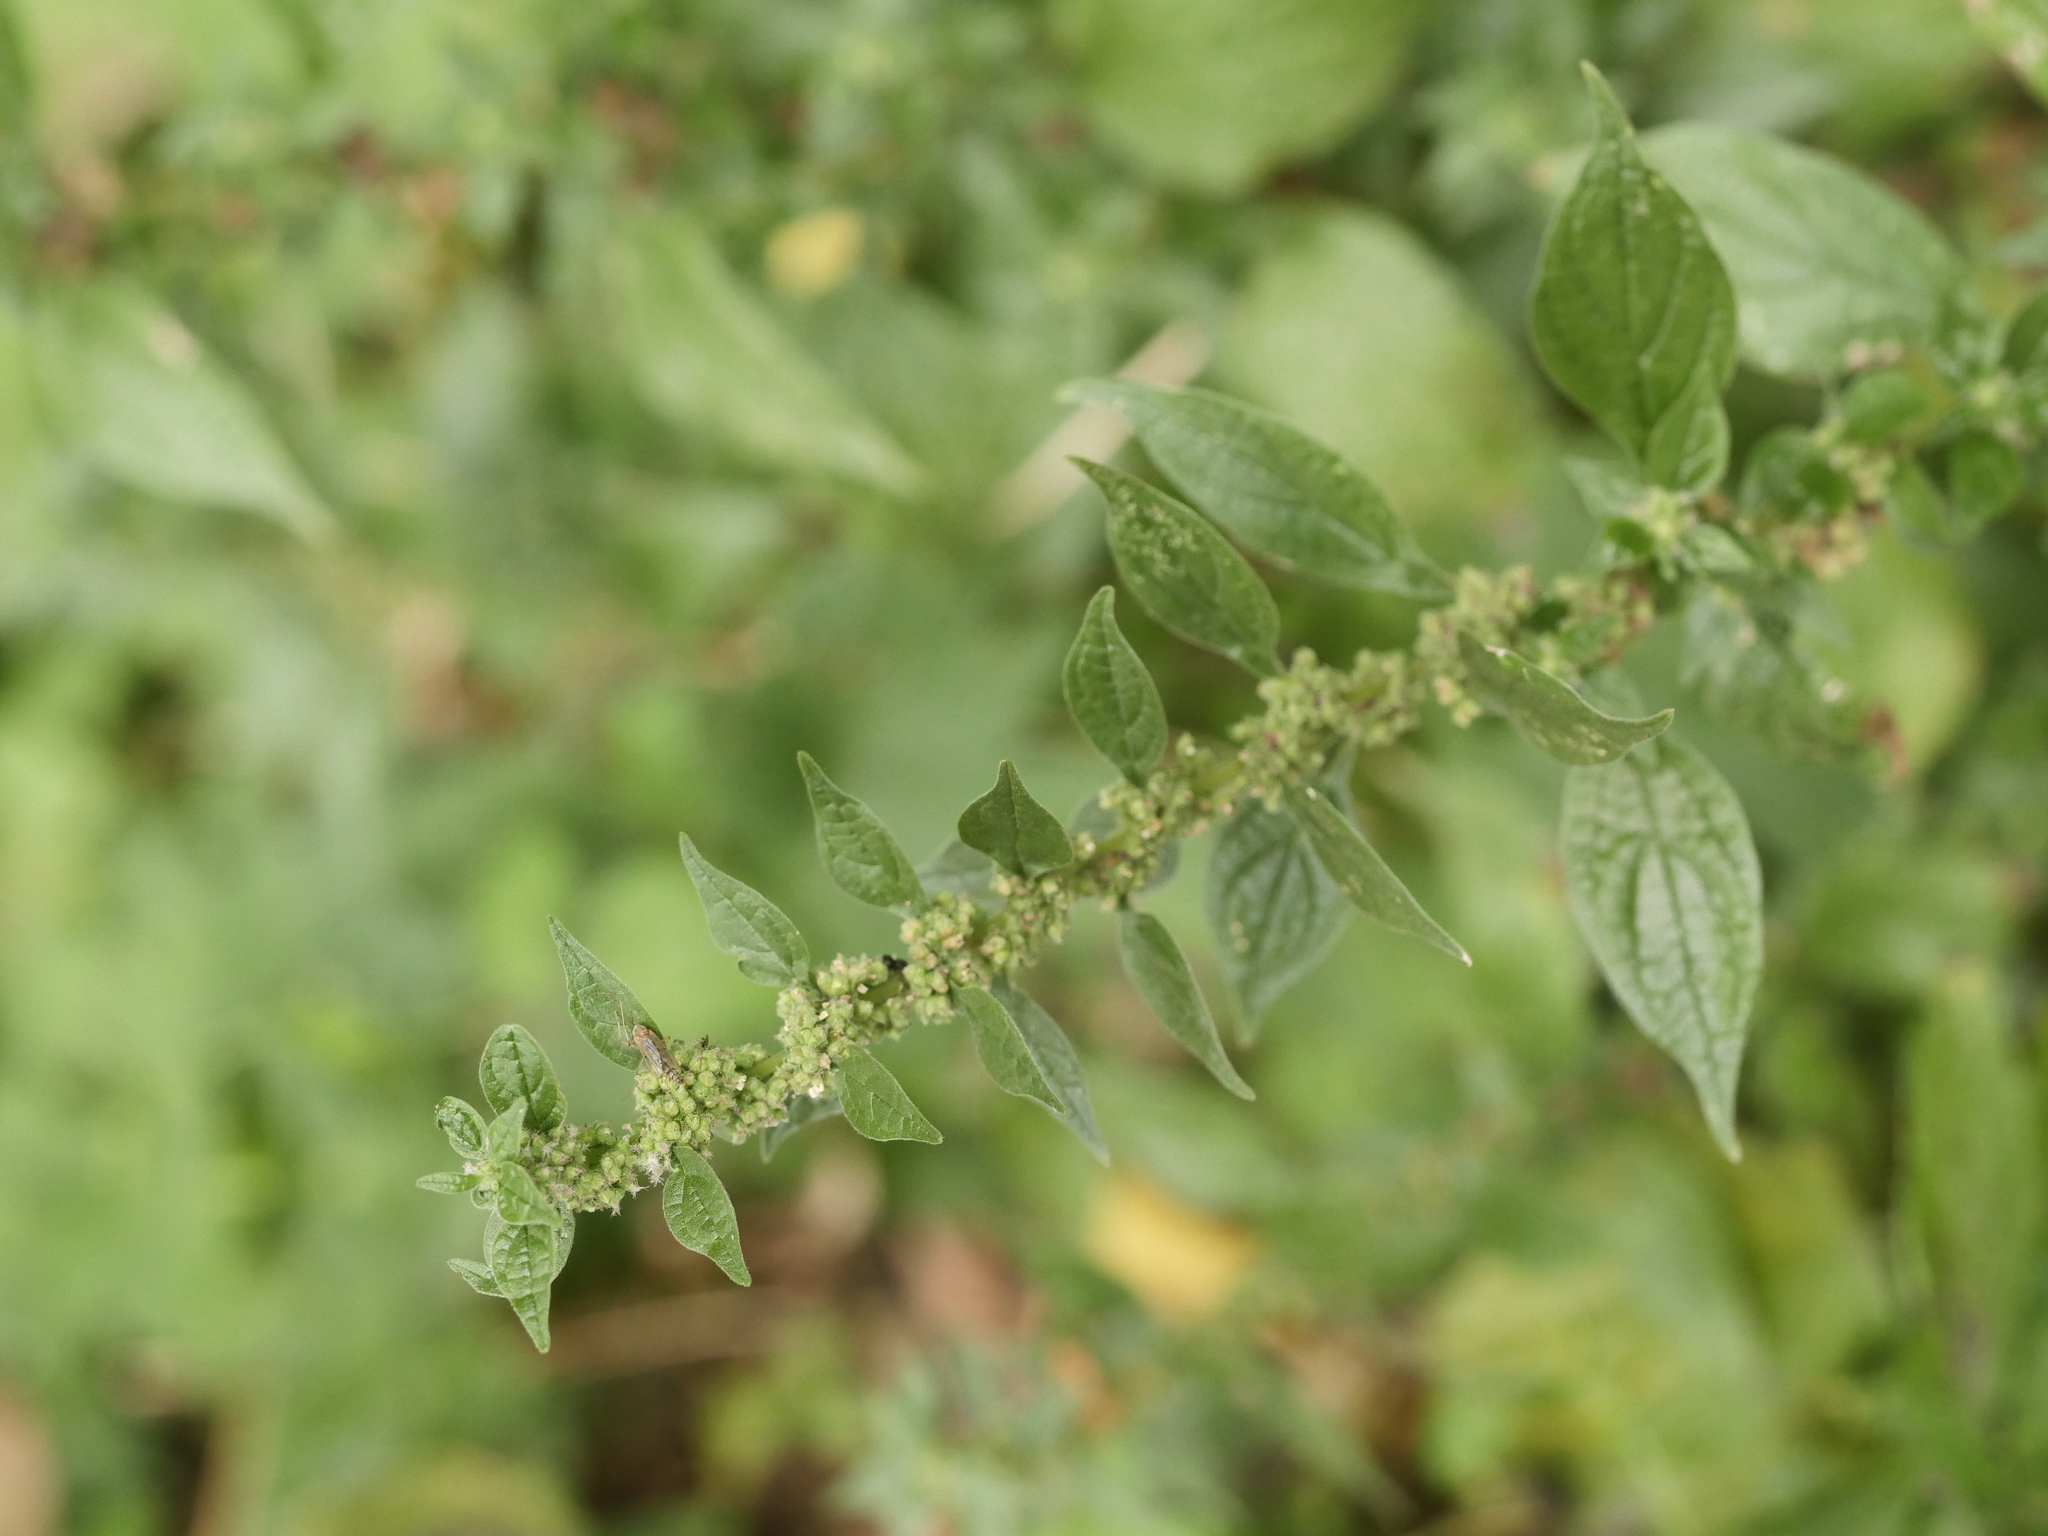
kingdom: Plantae
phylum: Tracheophyta
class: Magnoliopsida
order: Rosales
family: Urticaceae
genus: Parietaria
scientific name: Parietaria officinalis
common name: Eastern pellitory-of-the-wall
